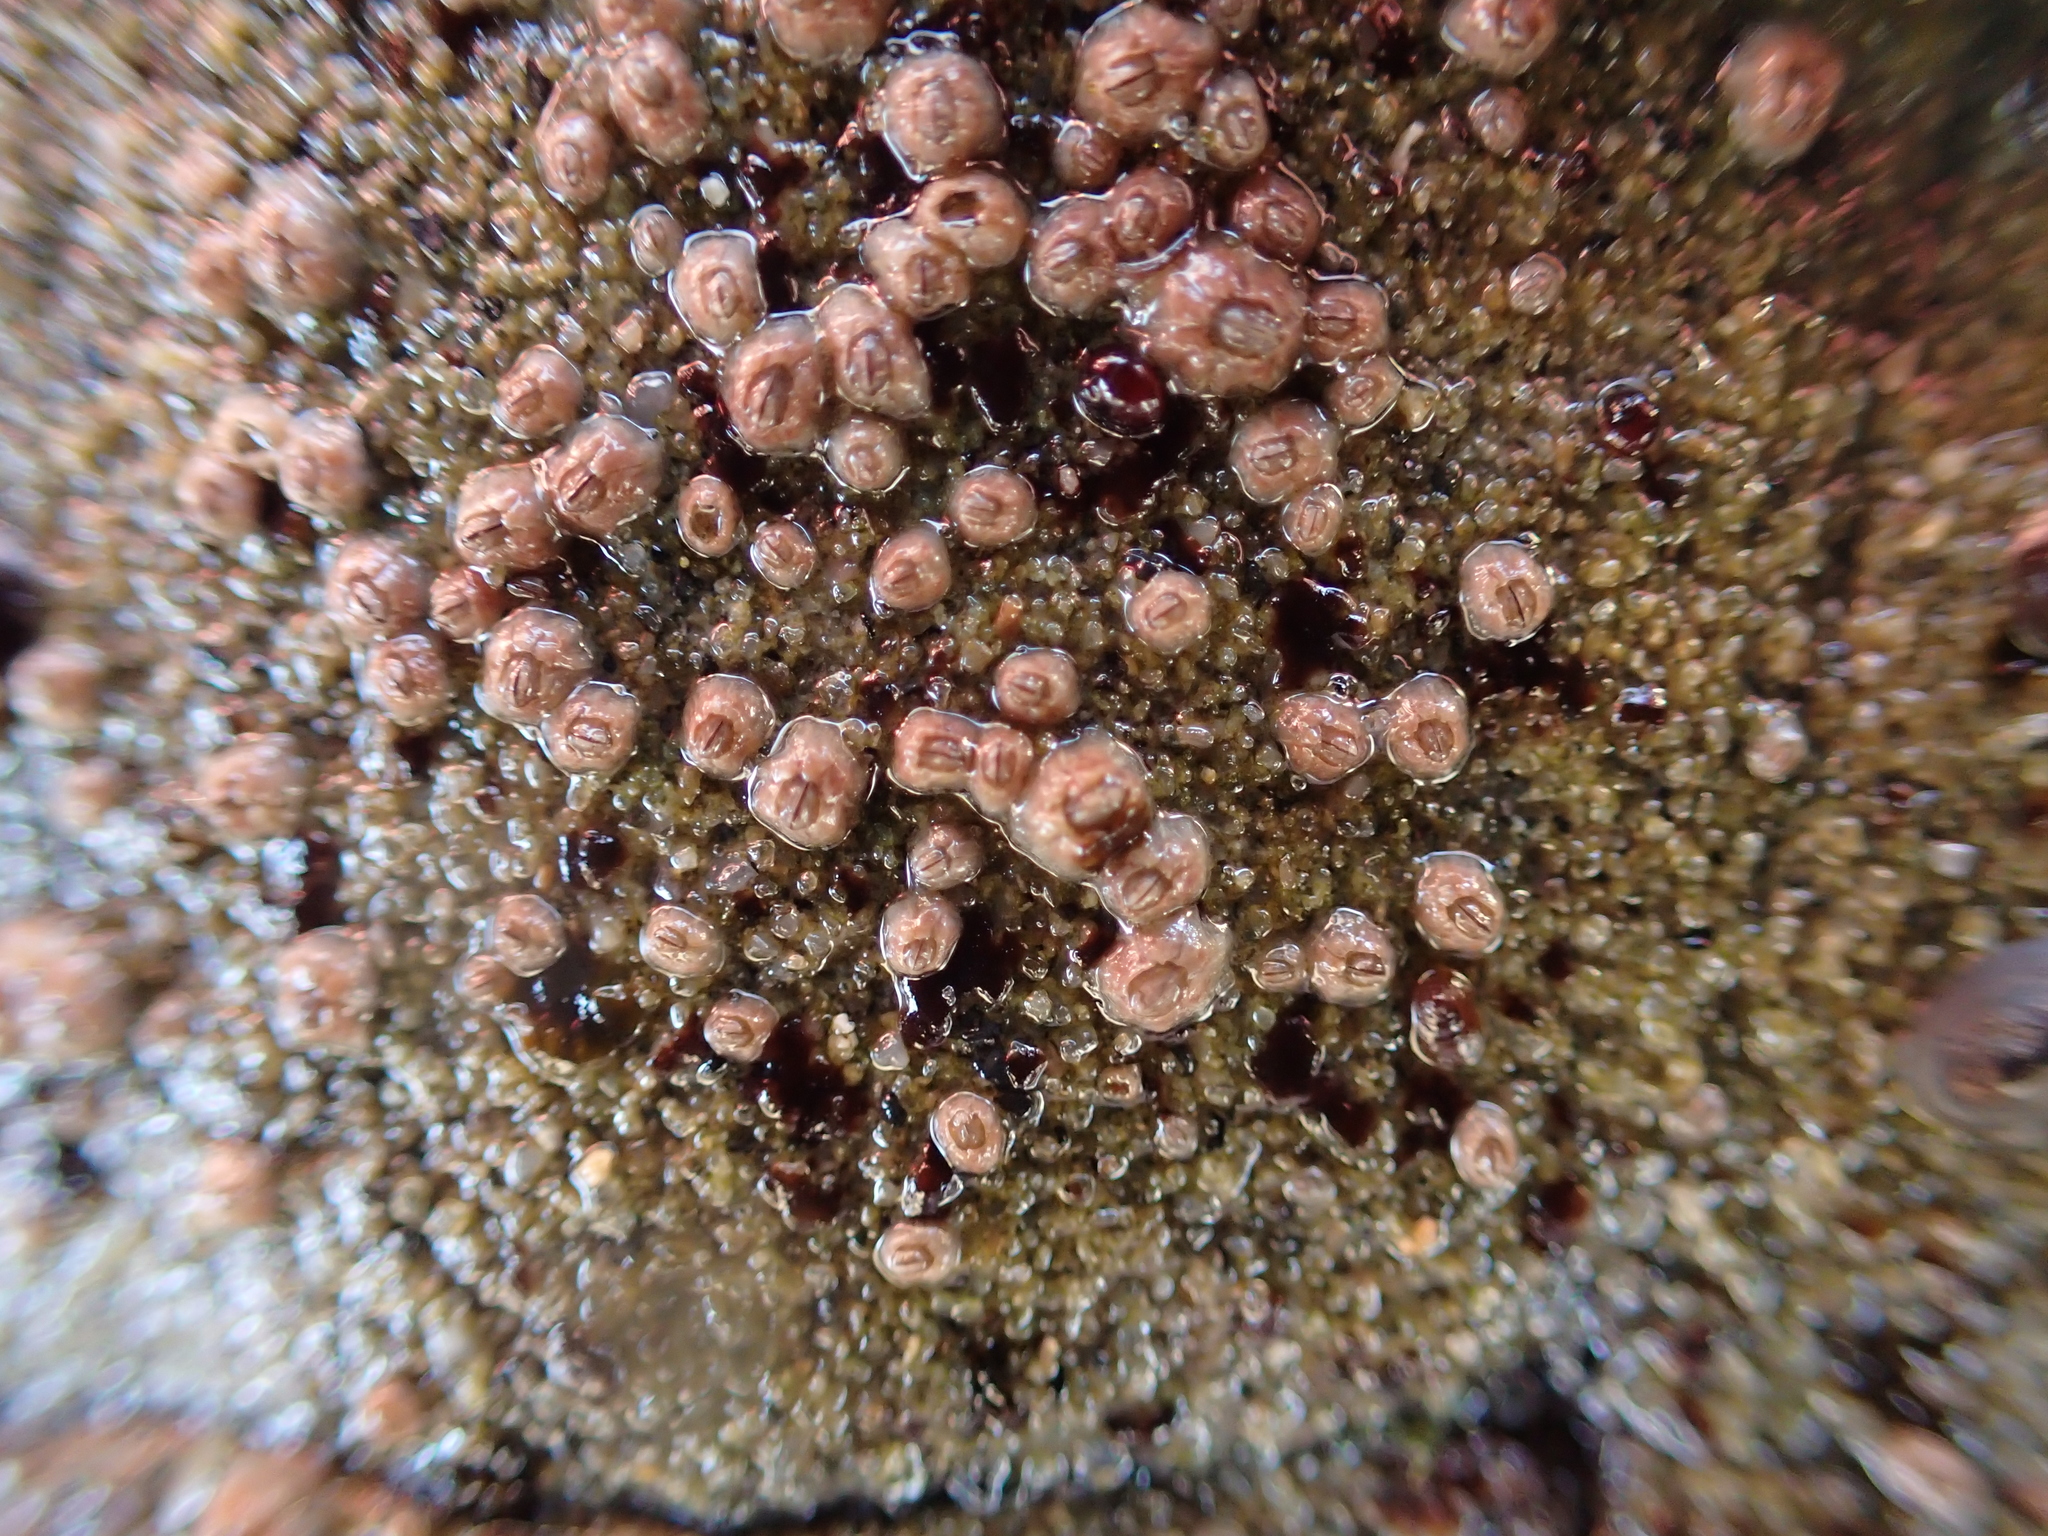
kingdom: Animalia
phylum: Arthropoda
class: Maxillopoda
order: Sessilia
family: Chthamalidae
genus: Chthamalus
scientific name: Chthamalus dalli
